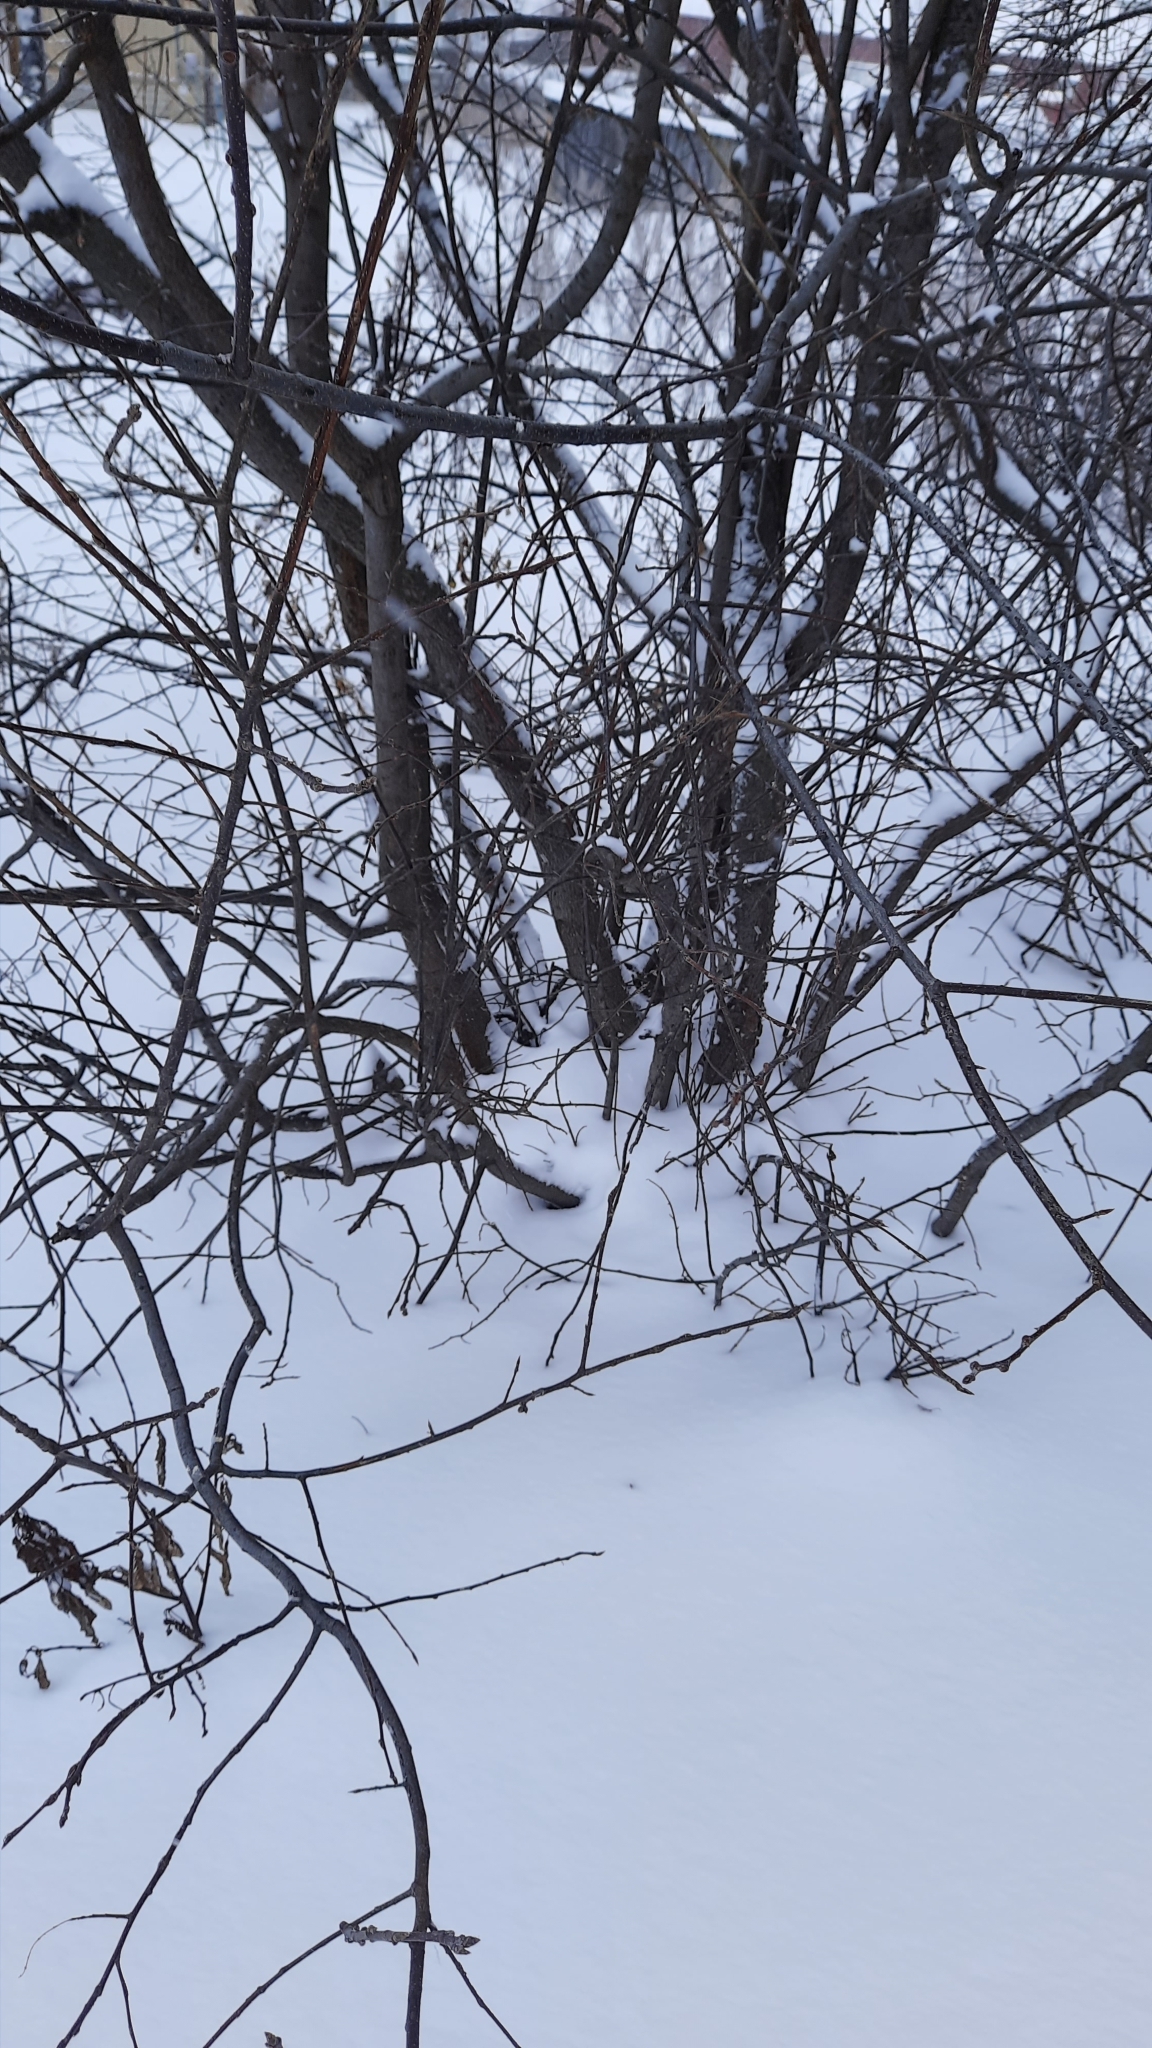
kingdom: Plantae
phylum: Tracheophyta
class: Magnoliopsida
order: Rosales
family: Rosaceae
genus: Prunus
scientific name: Prunus padus
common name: Bird cherry
